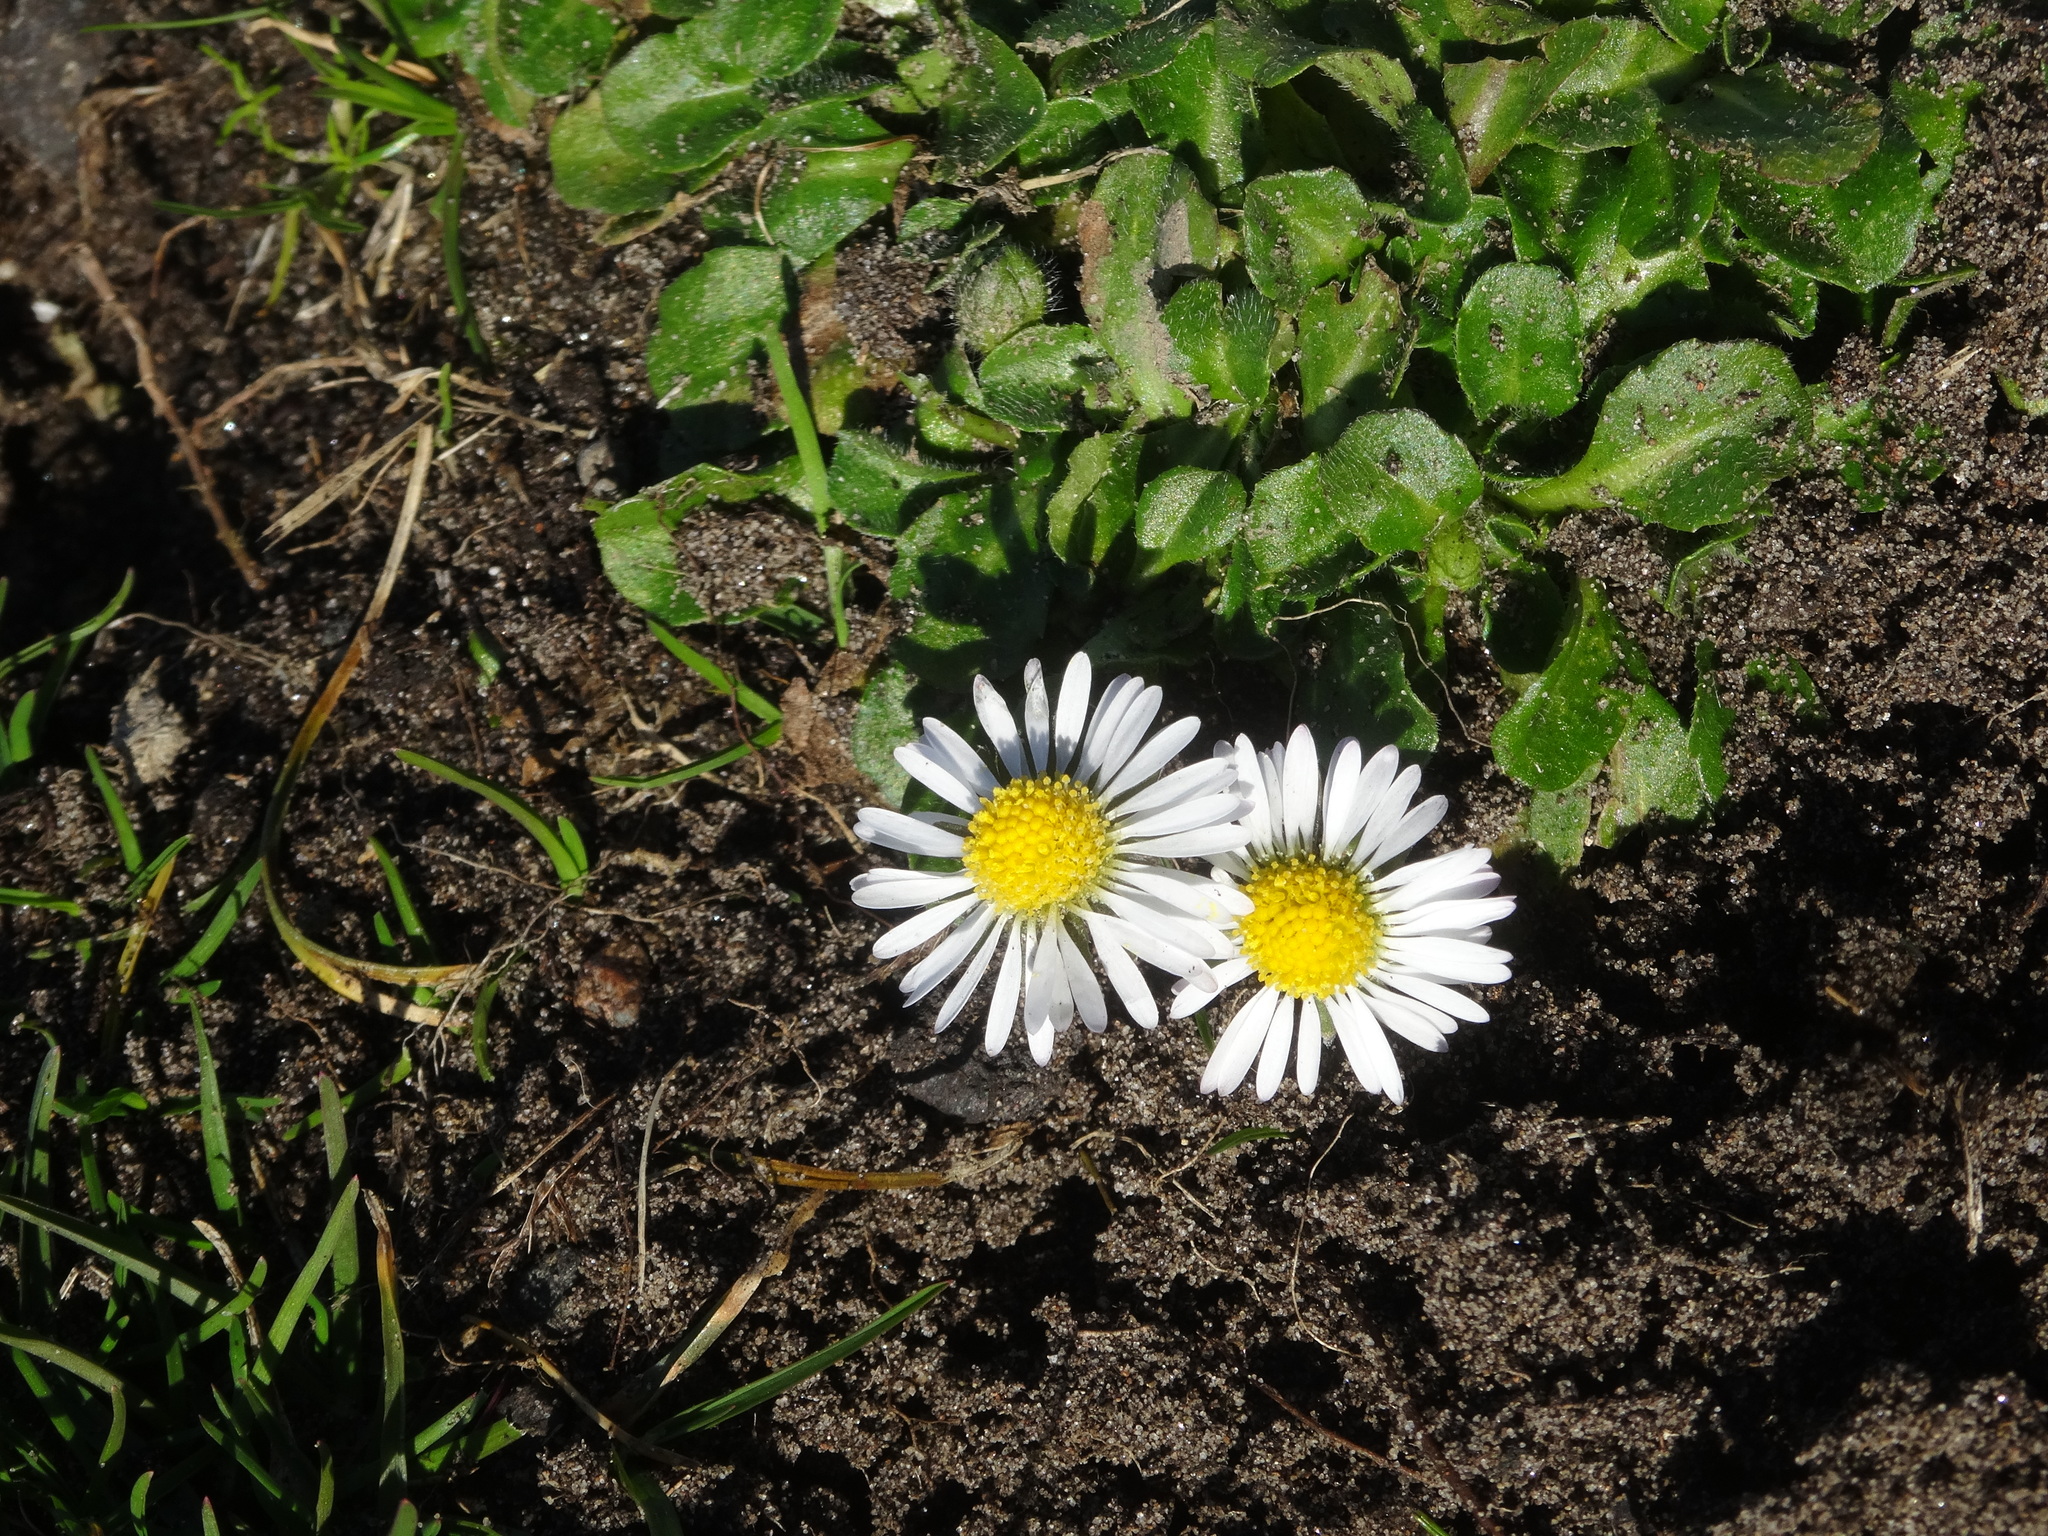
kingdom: Plantae
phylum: Tracheophyta
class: Magnoliopsida
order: Asterales
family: Asteraceae
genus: Bellis
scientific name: Bellis perennis
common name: Lawndaisy
